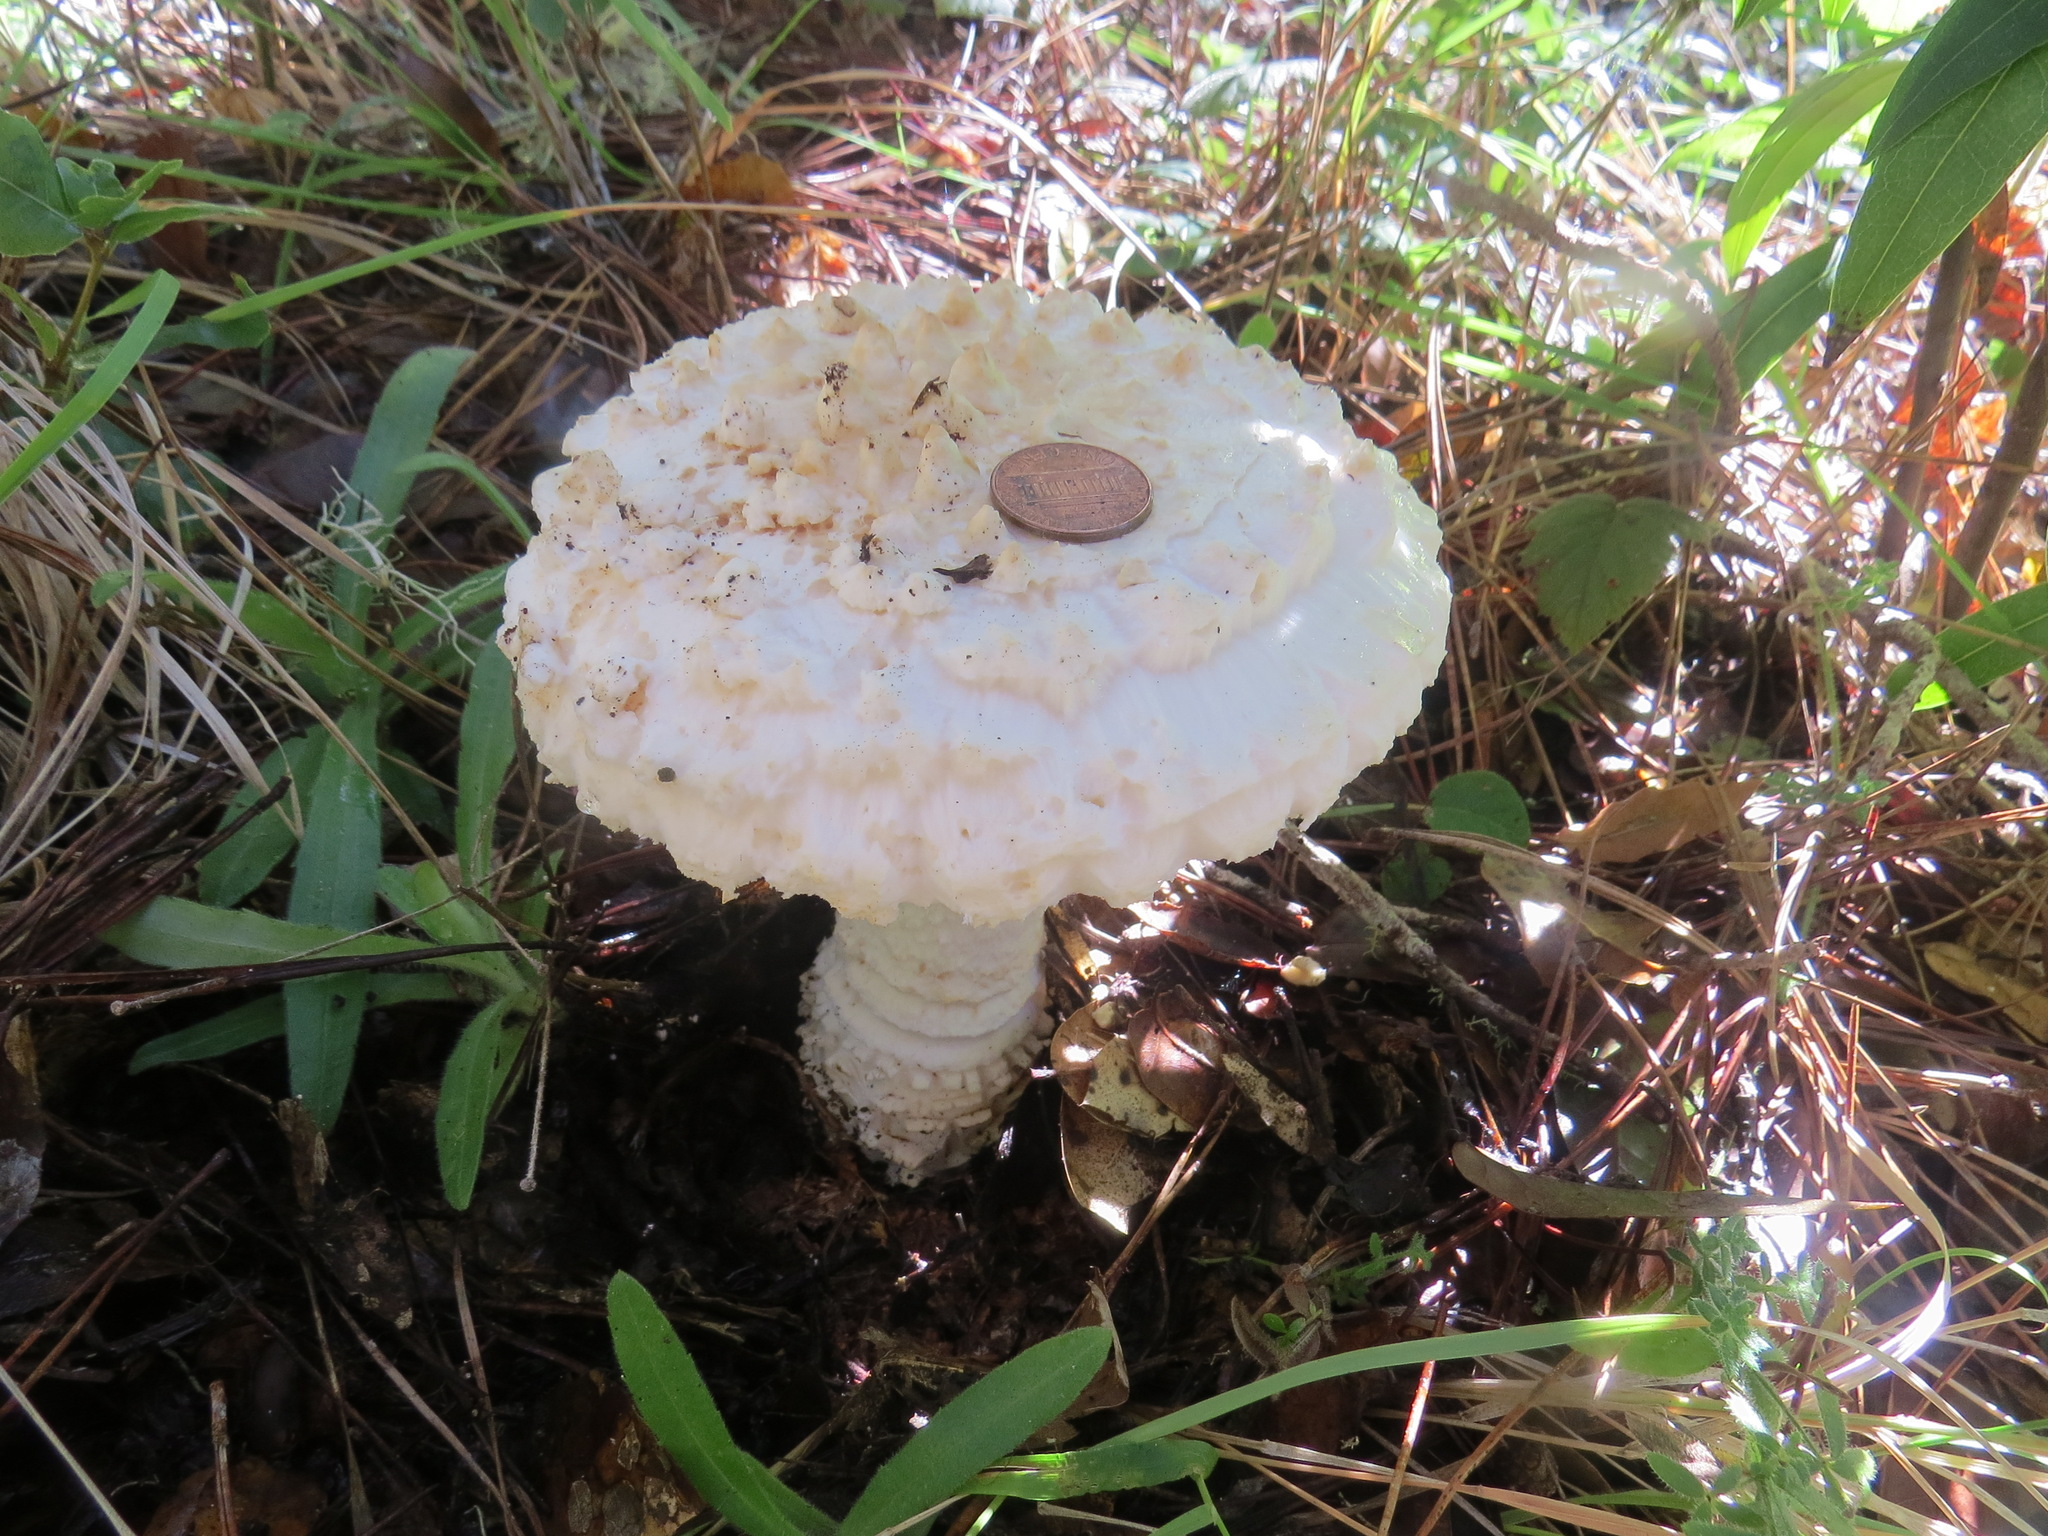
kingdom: Fungi
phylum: Basidiomycota
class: Agaricomycetes
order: Agaricales
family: Amanitaceae
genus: Amanita
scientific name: Amanita magniverrucata
